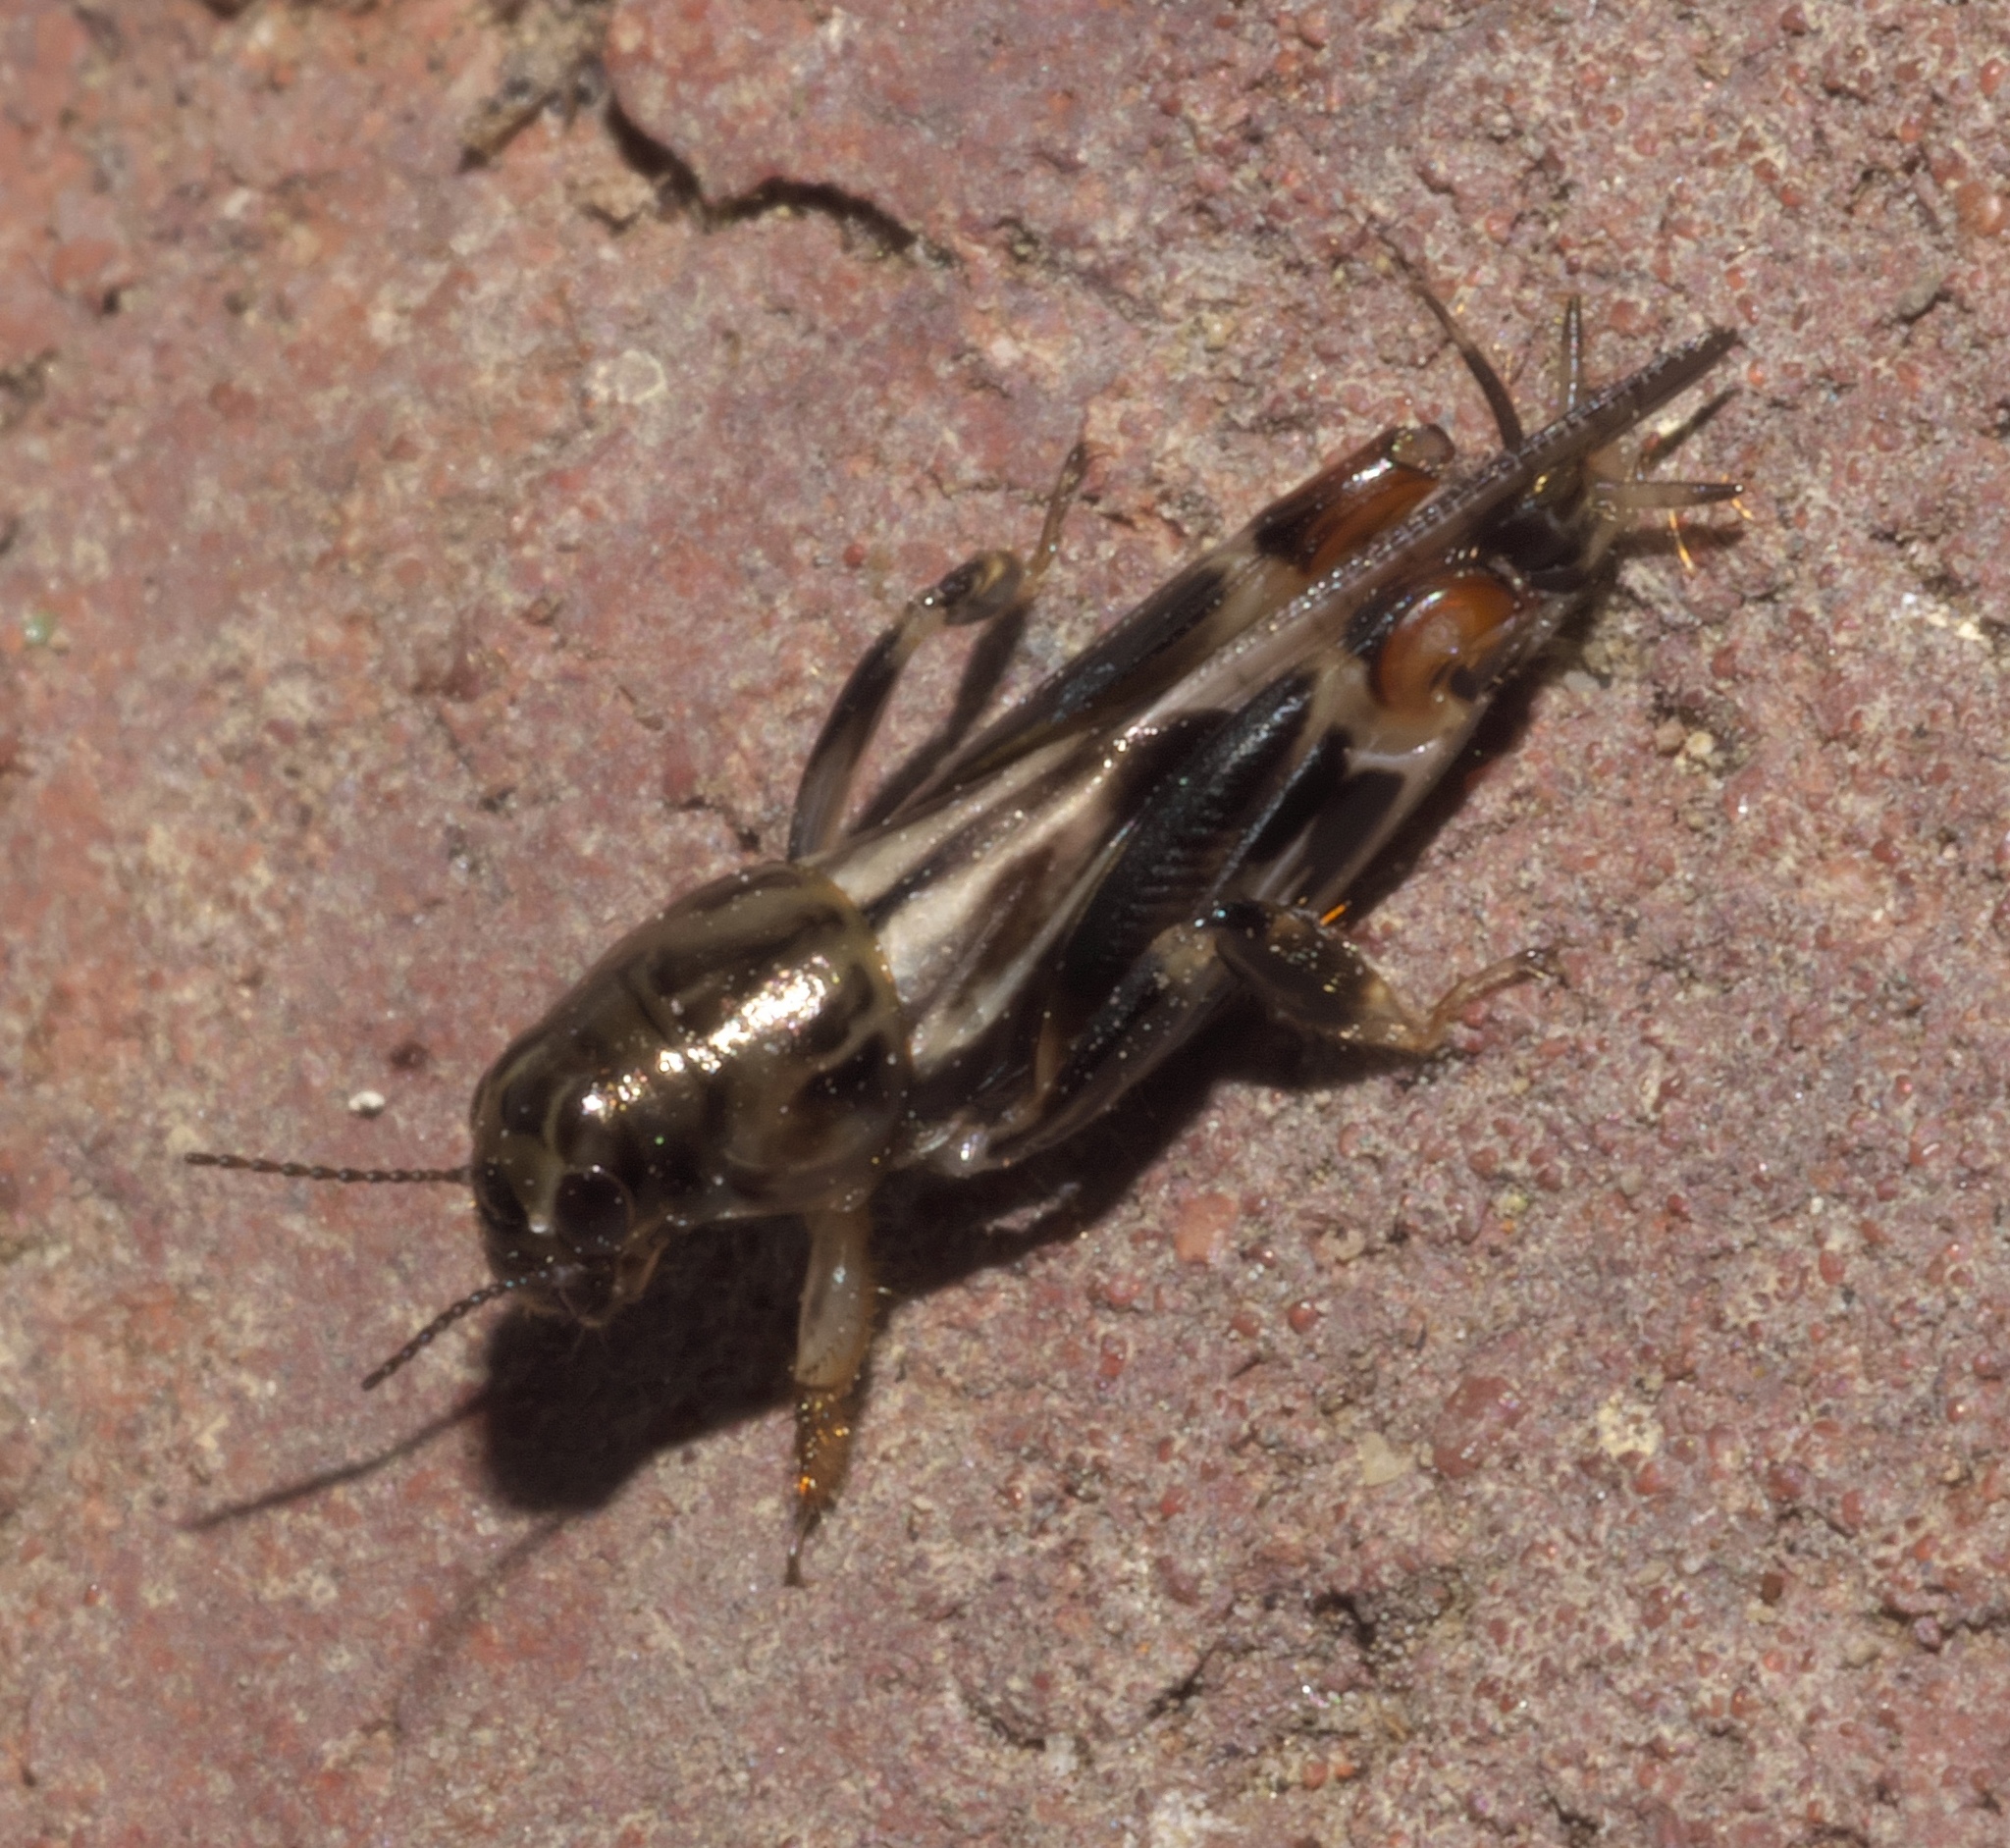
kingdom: Animalia
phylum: Arthropoda
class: Insecta
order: Orthoptera
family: Tridactylidae
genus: Neotridactylus
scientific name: Neotridactylus apicialis
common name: Larger pygmy locust
